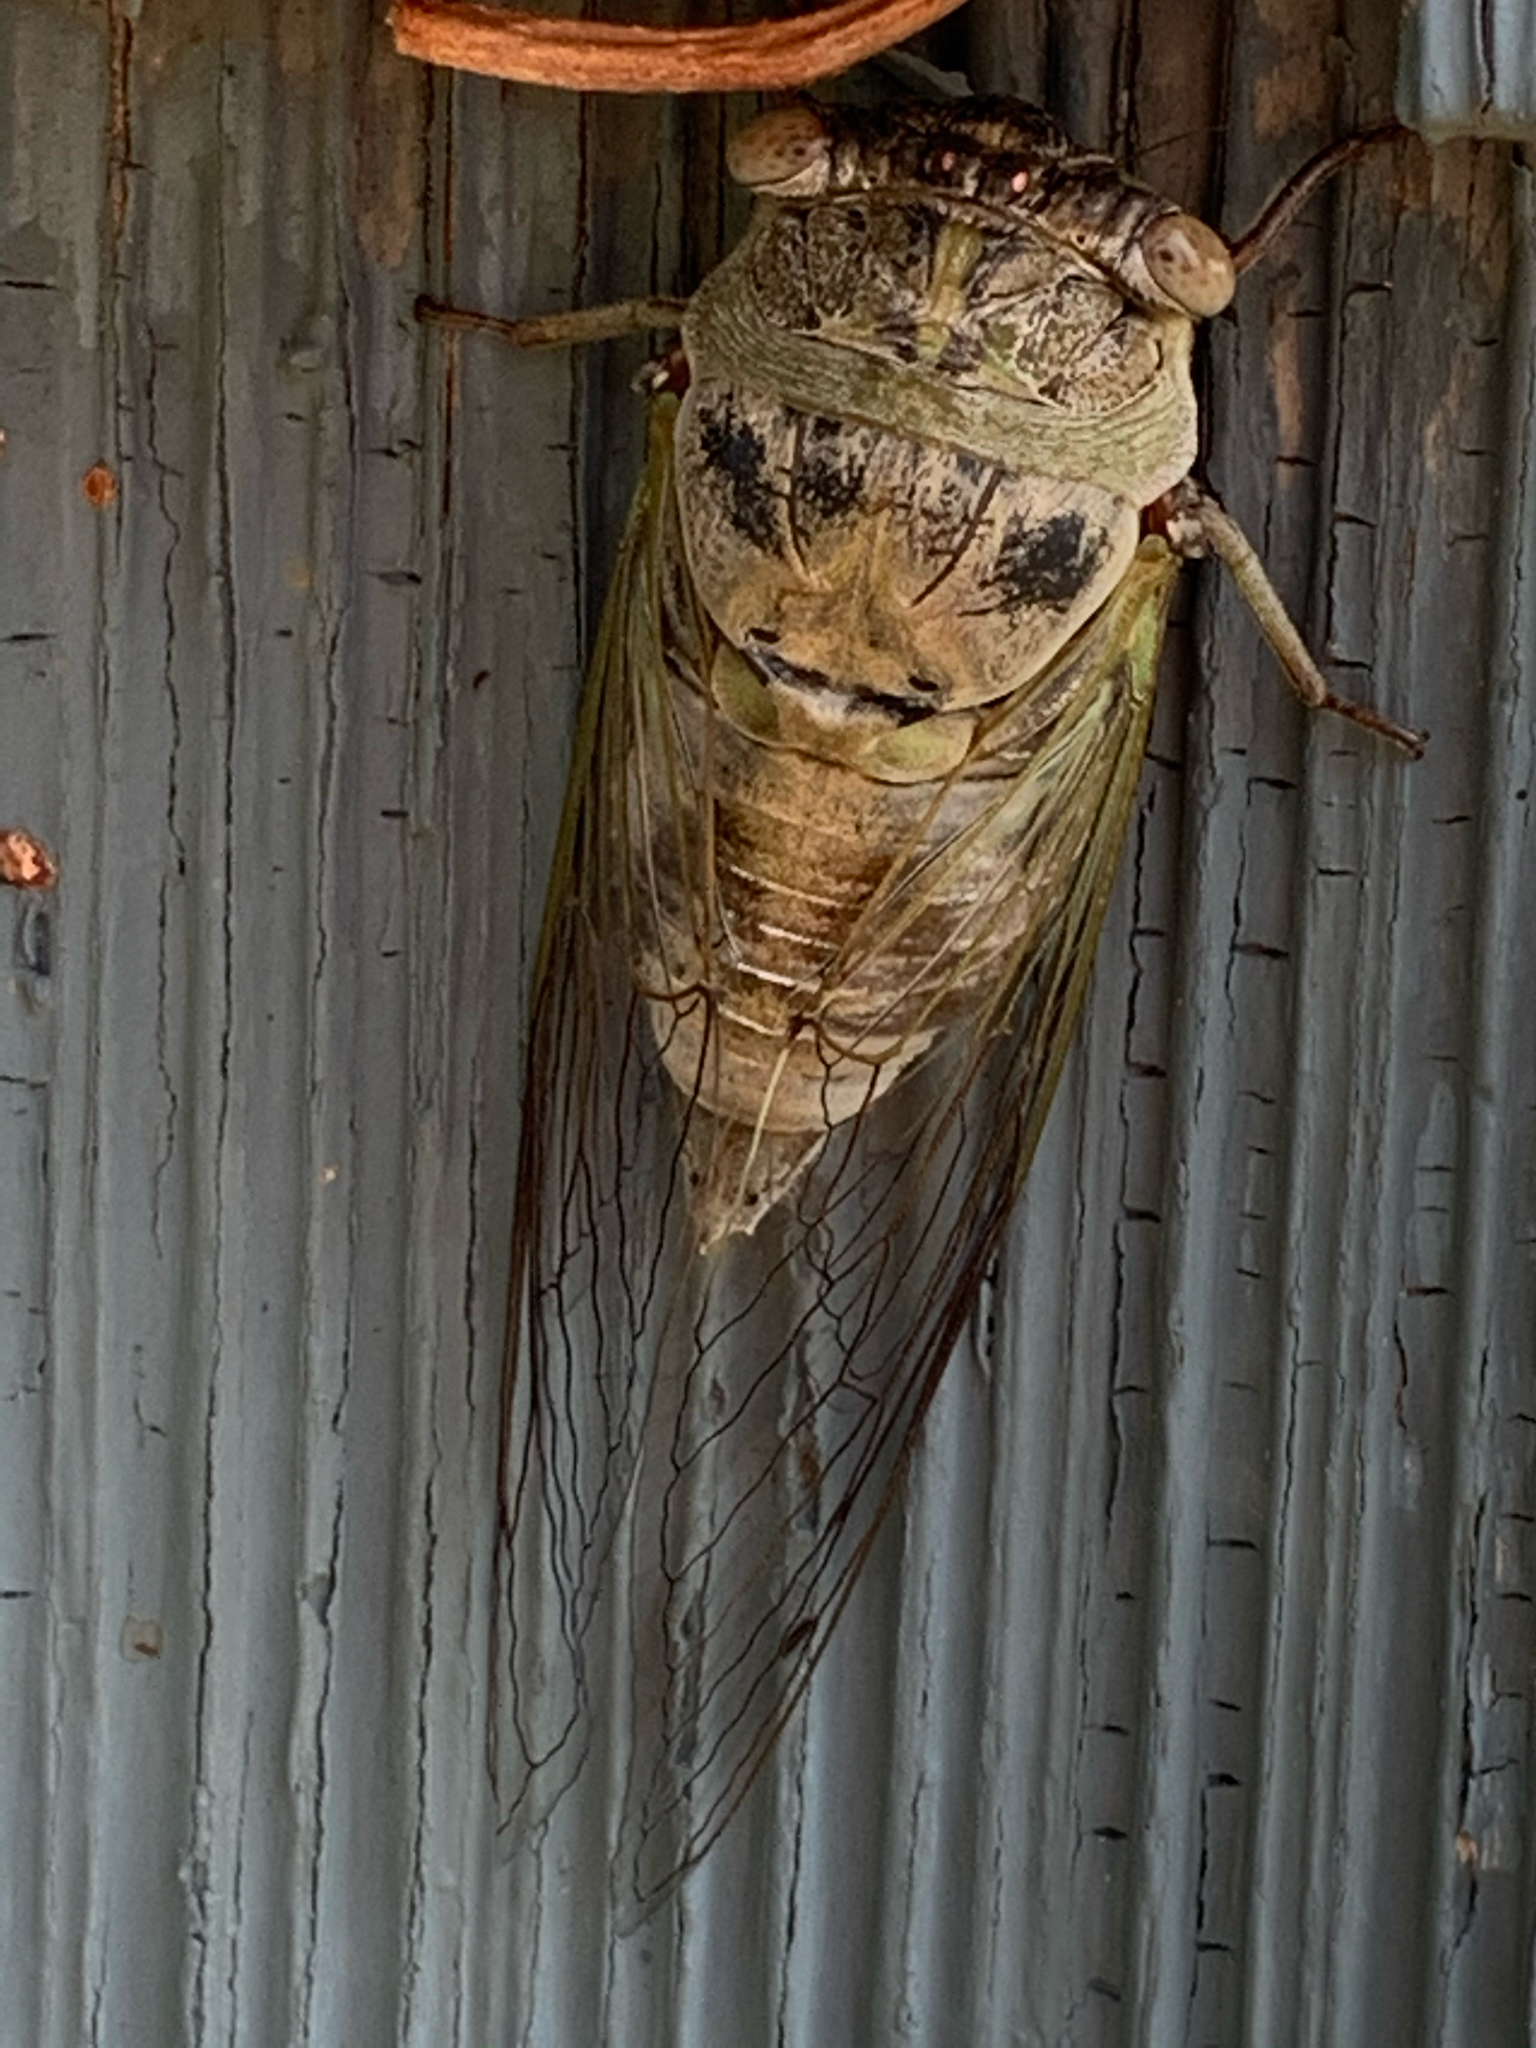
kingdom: Animalia
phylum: Arthropoda
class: Insecta
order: Hemiptera
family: Cicadidae
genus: Diceroprocta
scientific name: Diceroprocta grossa
